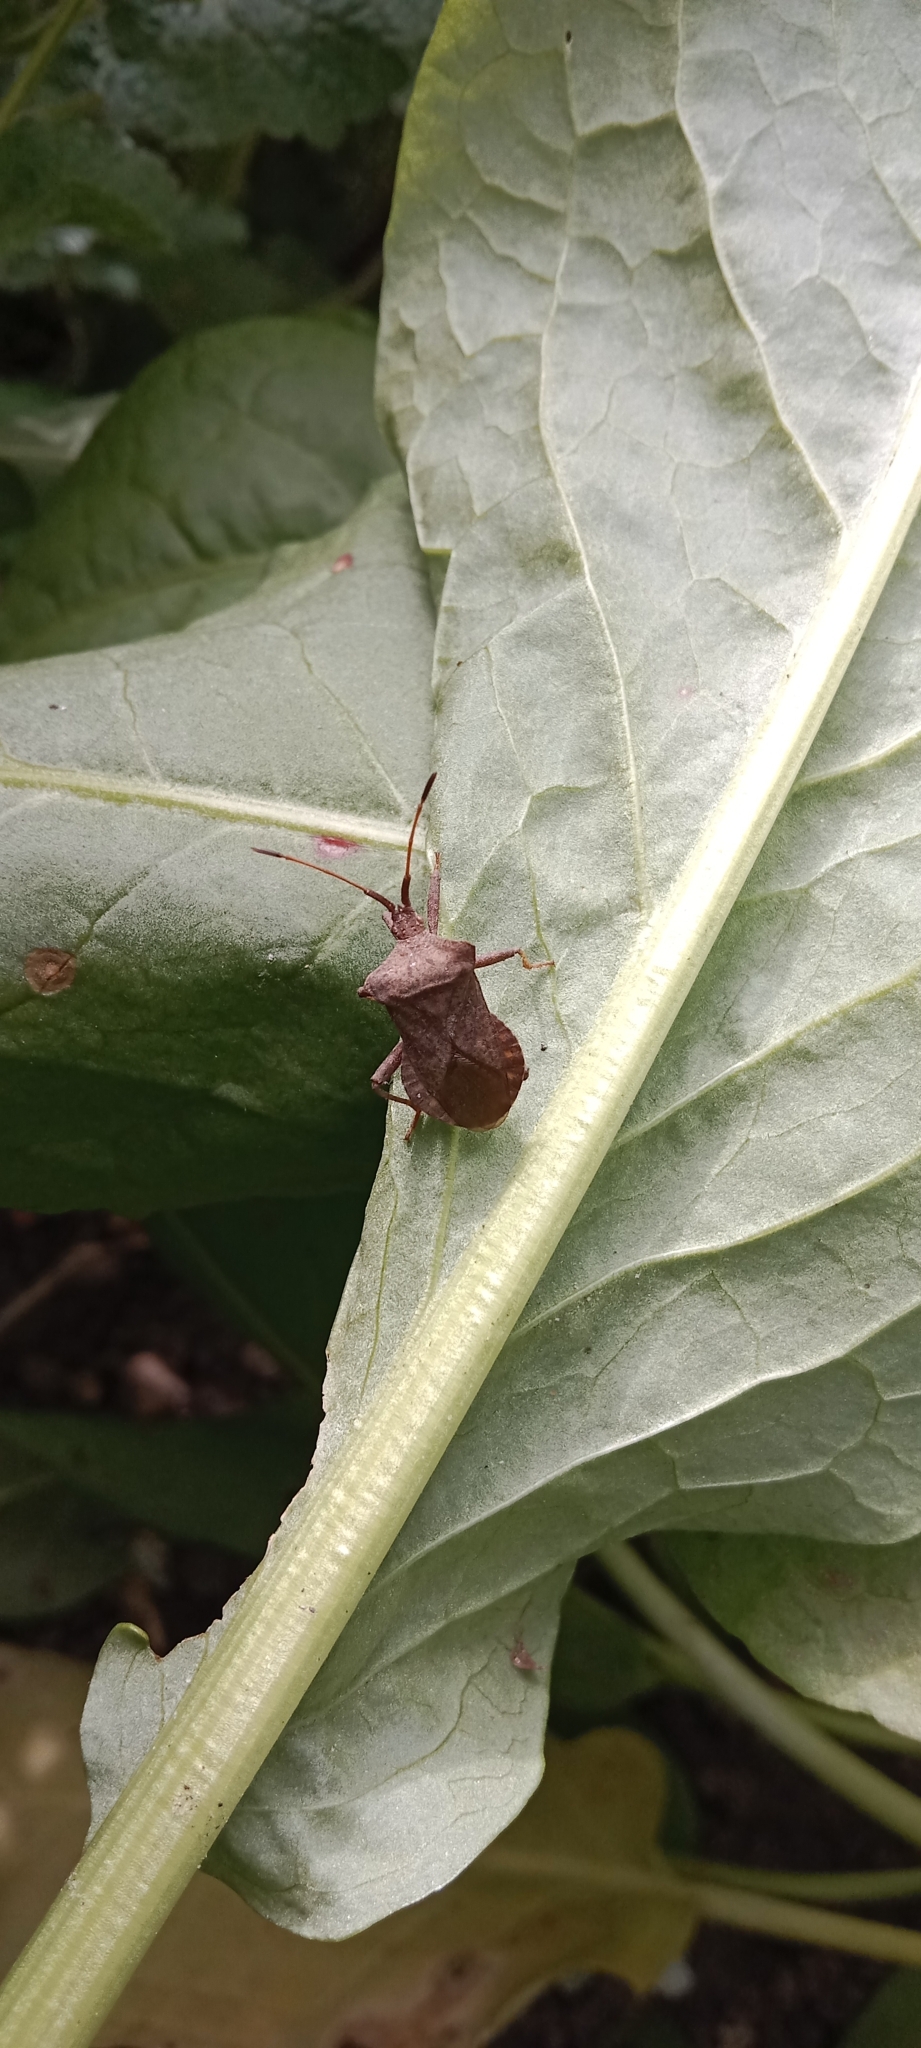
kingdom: Animalia
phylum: Arthropoda
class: Insecta
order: Hemiptera
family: Coreidae
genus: Coreus
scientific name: Coreus marginatus
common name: Dock bug
